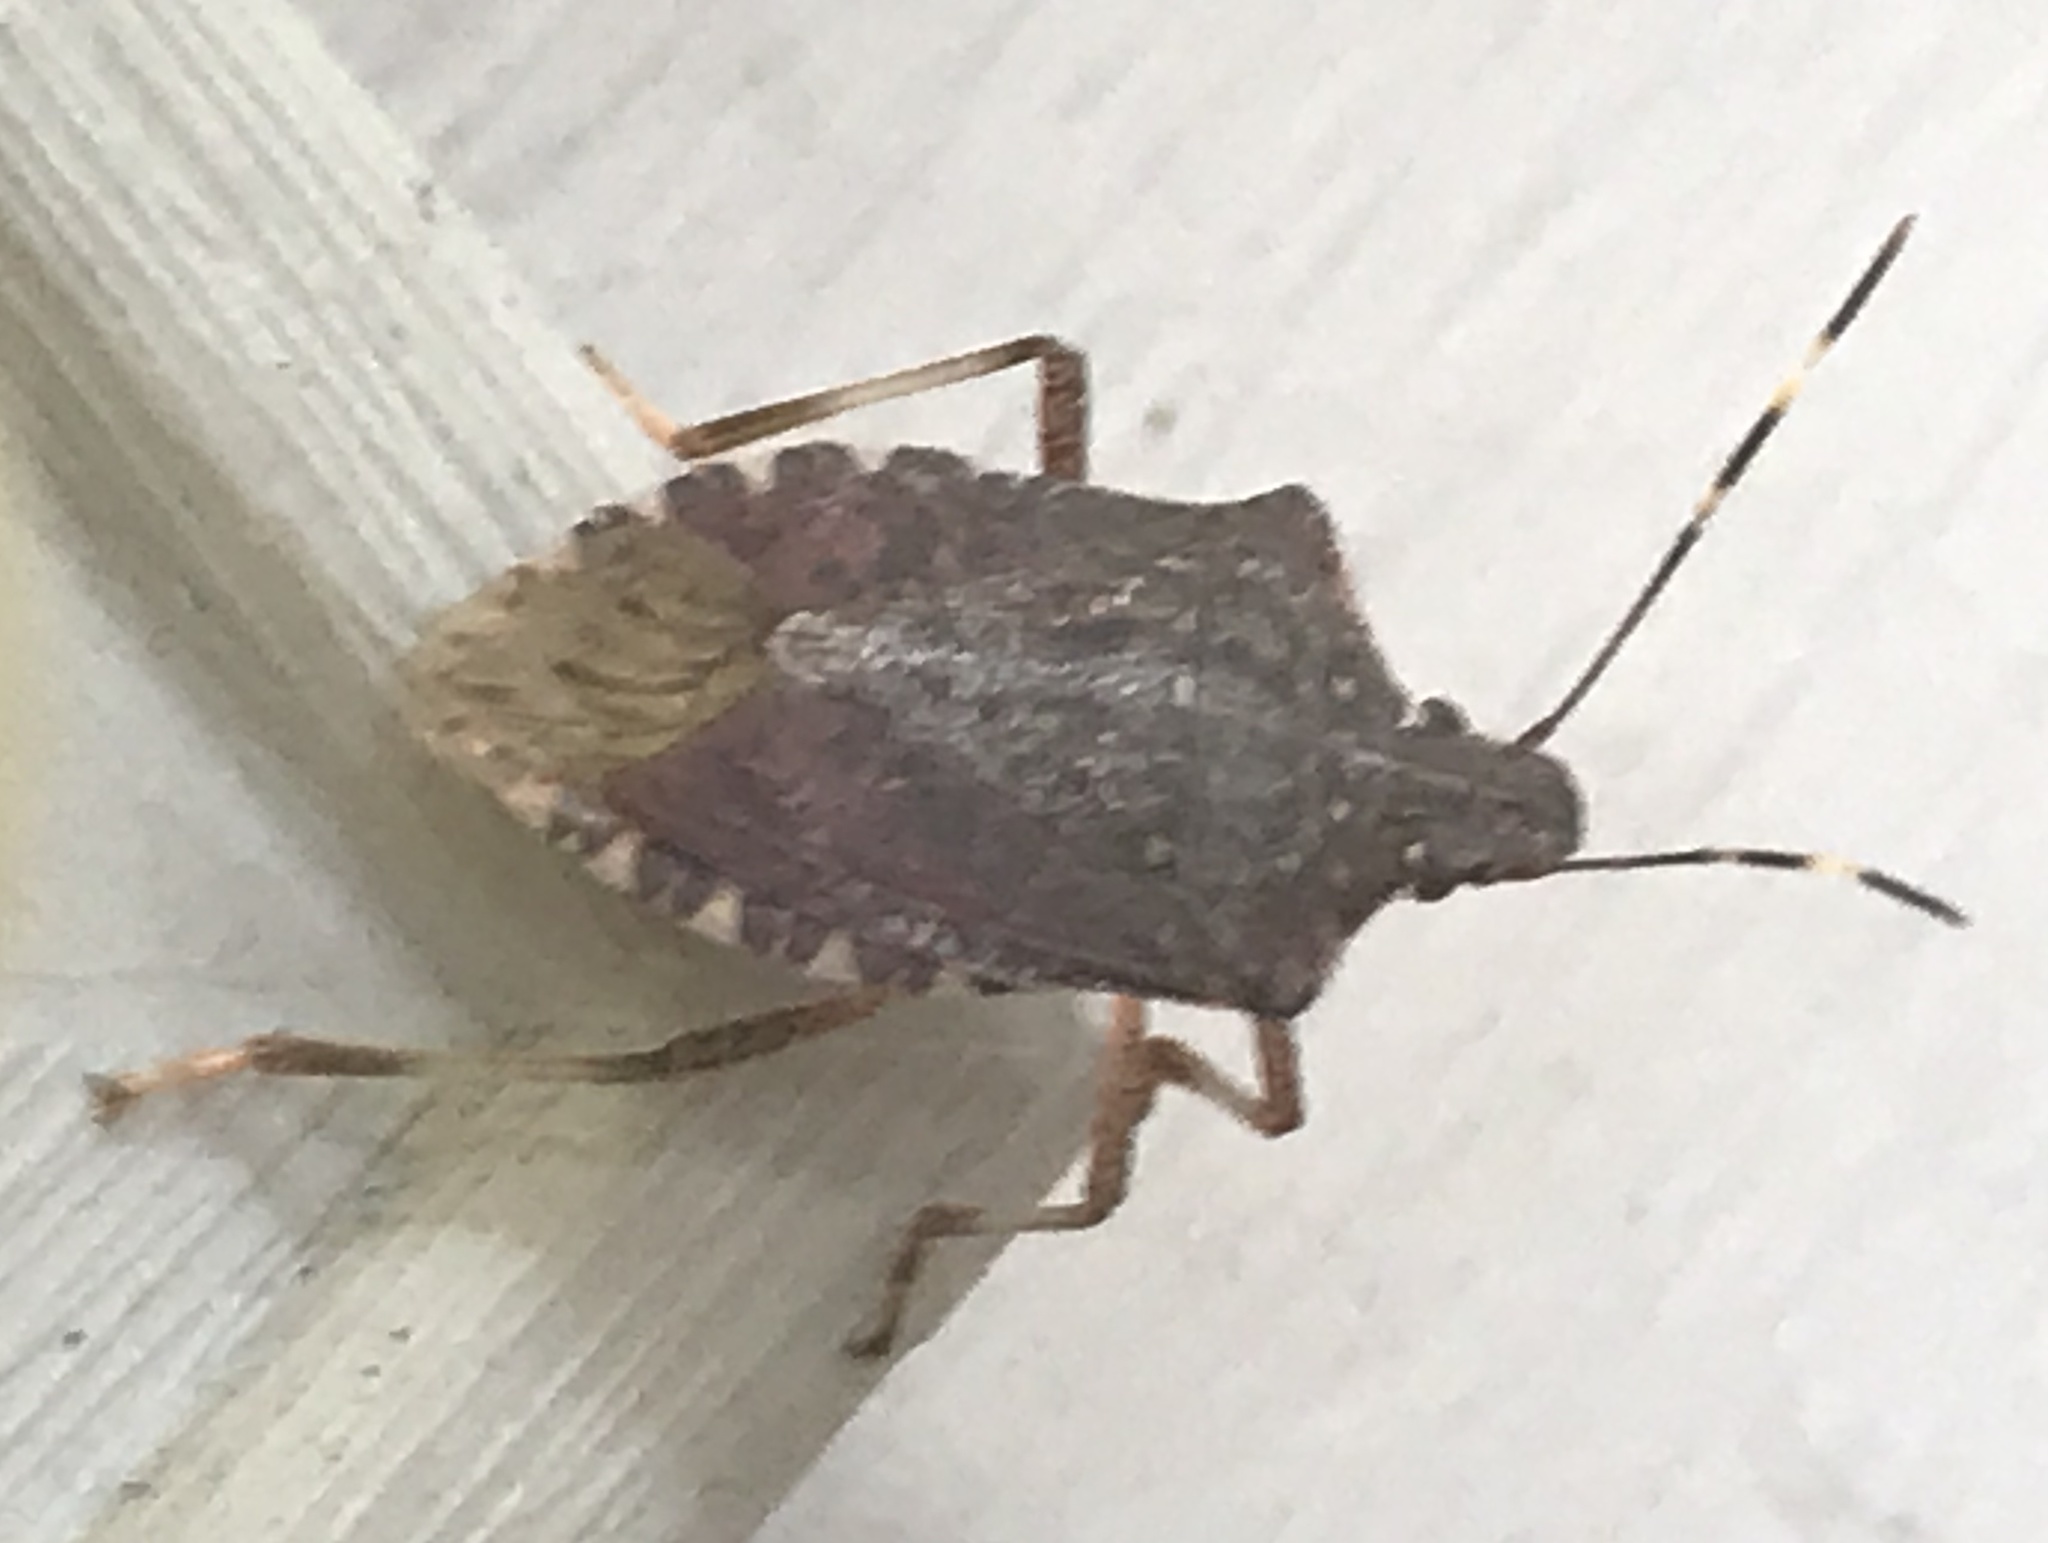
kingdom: Animalia
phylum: Arthropoda
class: Insecta
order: Hemiptera
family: Pentatomidae
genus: Halyomorpha
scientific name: Halyomorpha halys
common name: Brown marmorated stink bug
